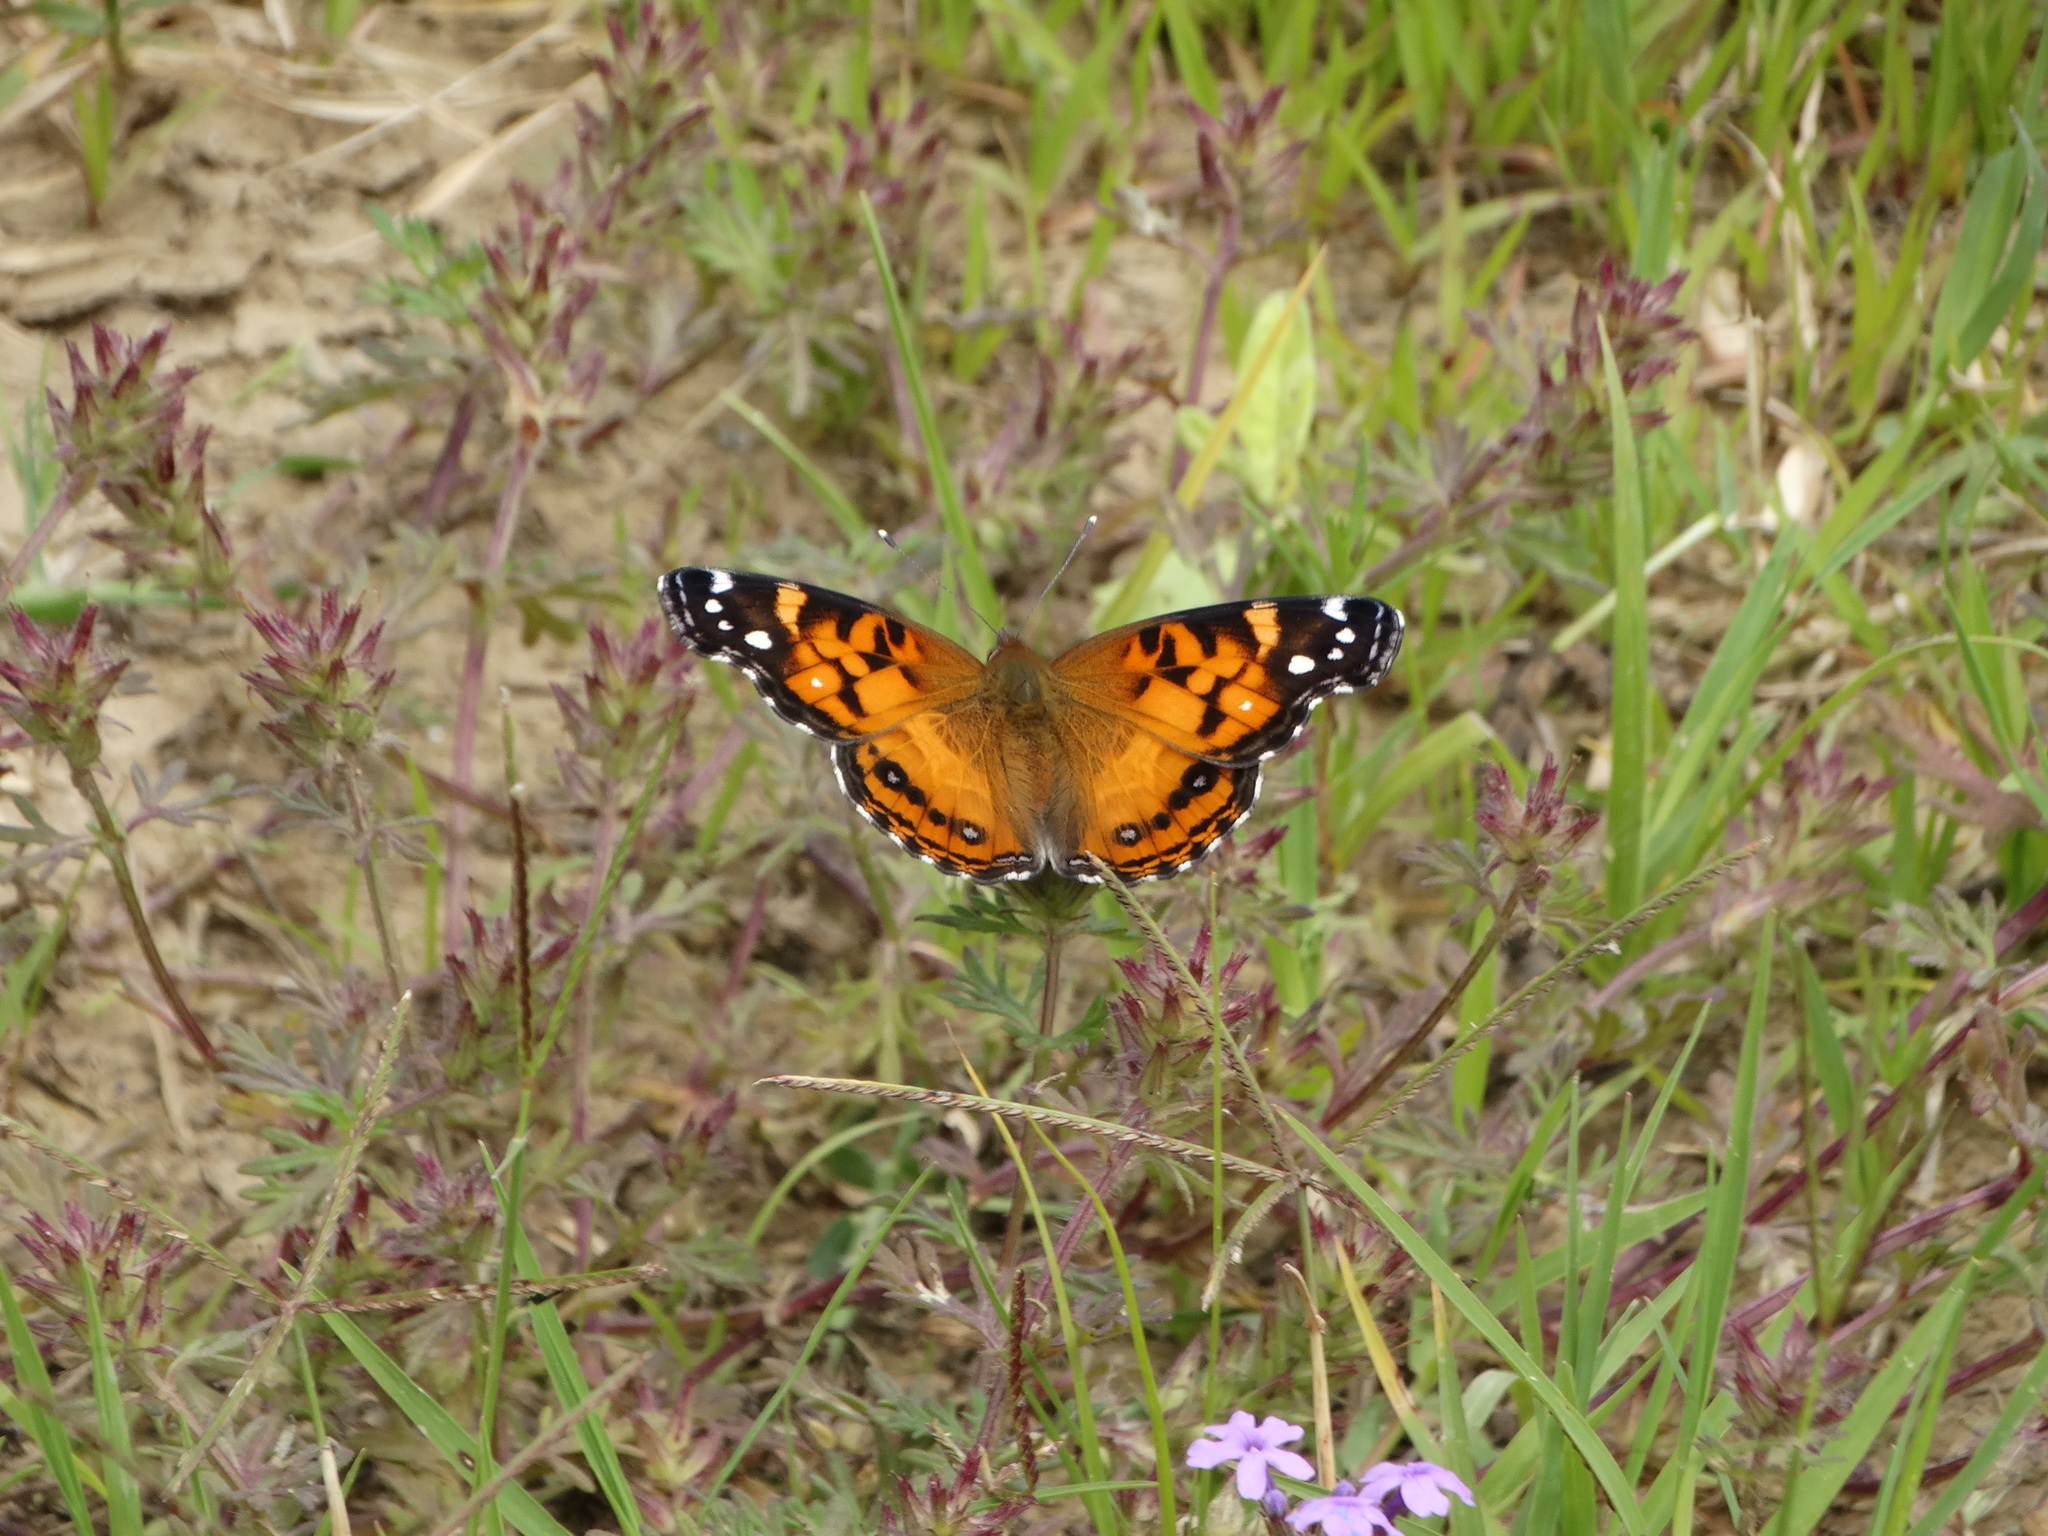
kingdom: Animalia
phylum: Arthropoda
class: Insecta
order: Lepidoptera
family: Nymphalidae
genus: Vanessa
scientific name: Vanessa virginiensis
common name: American lady
